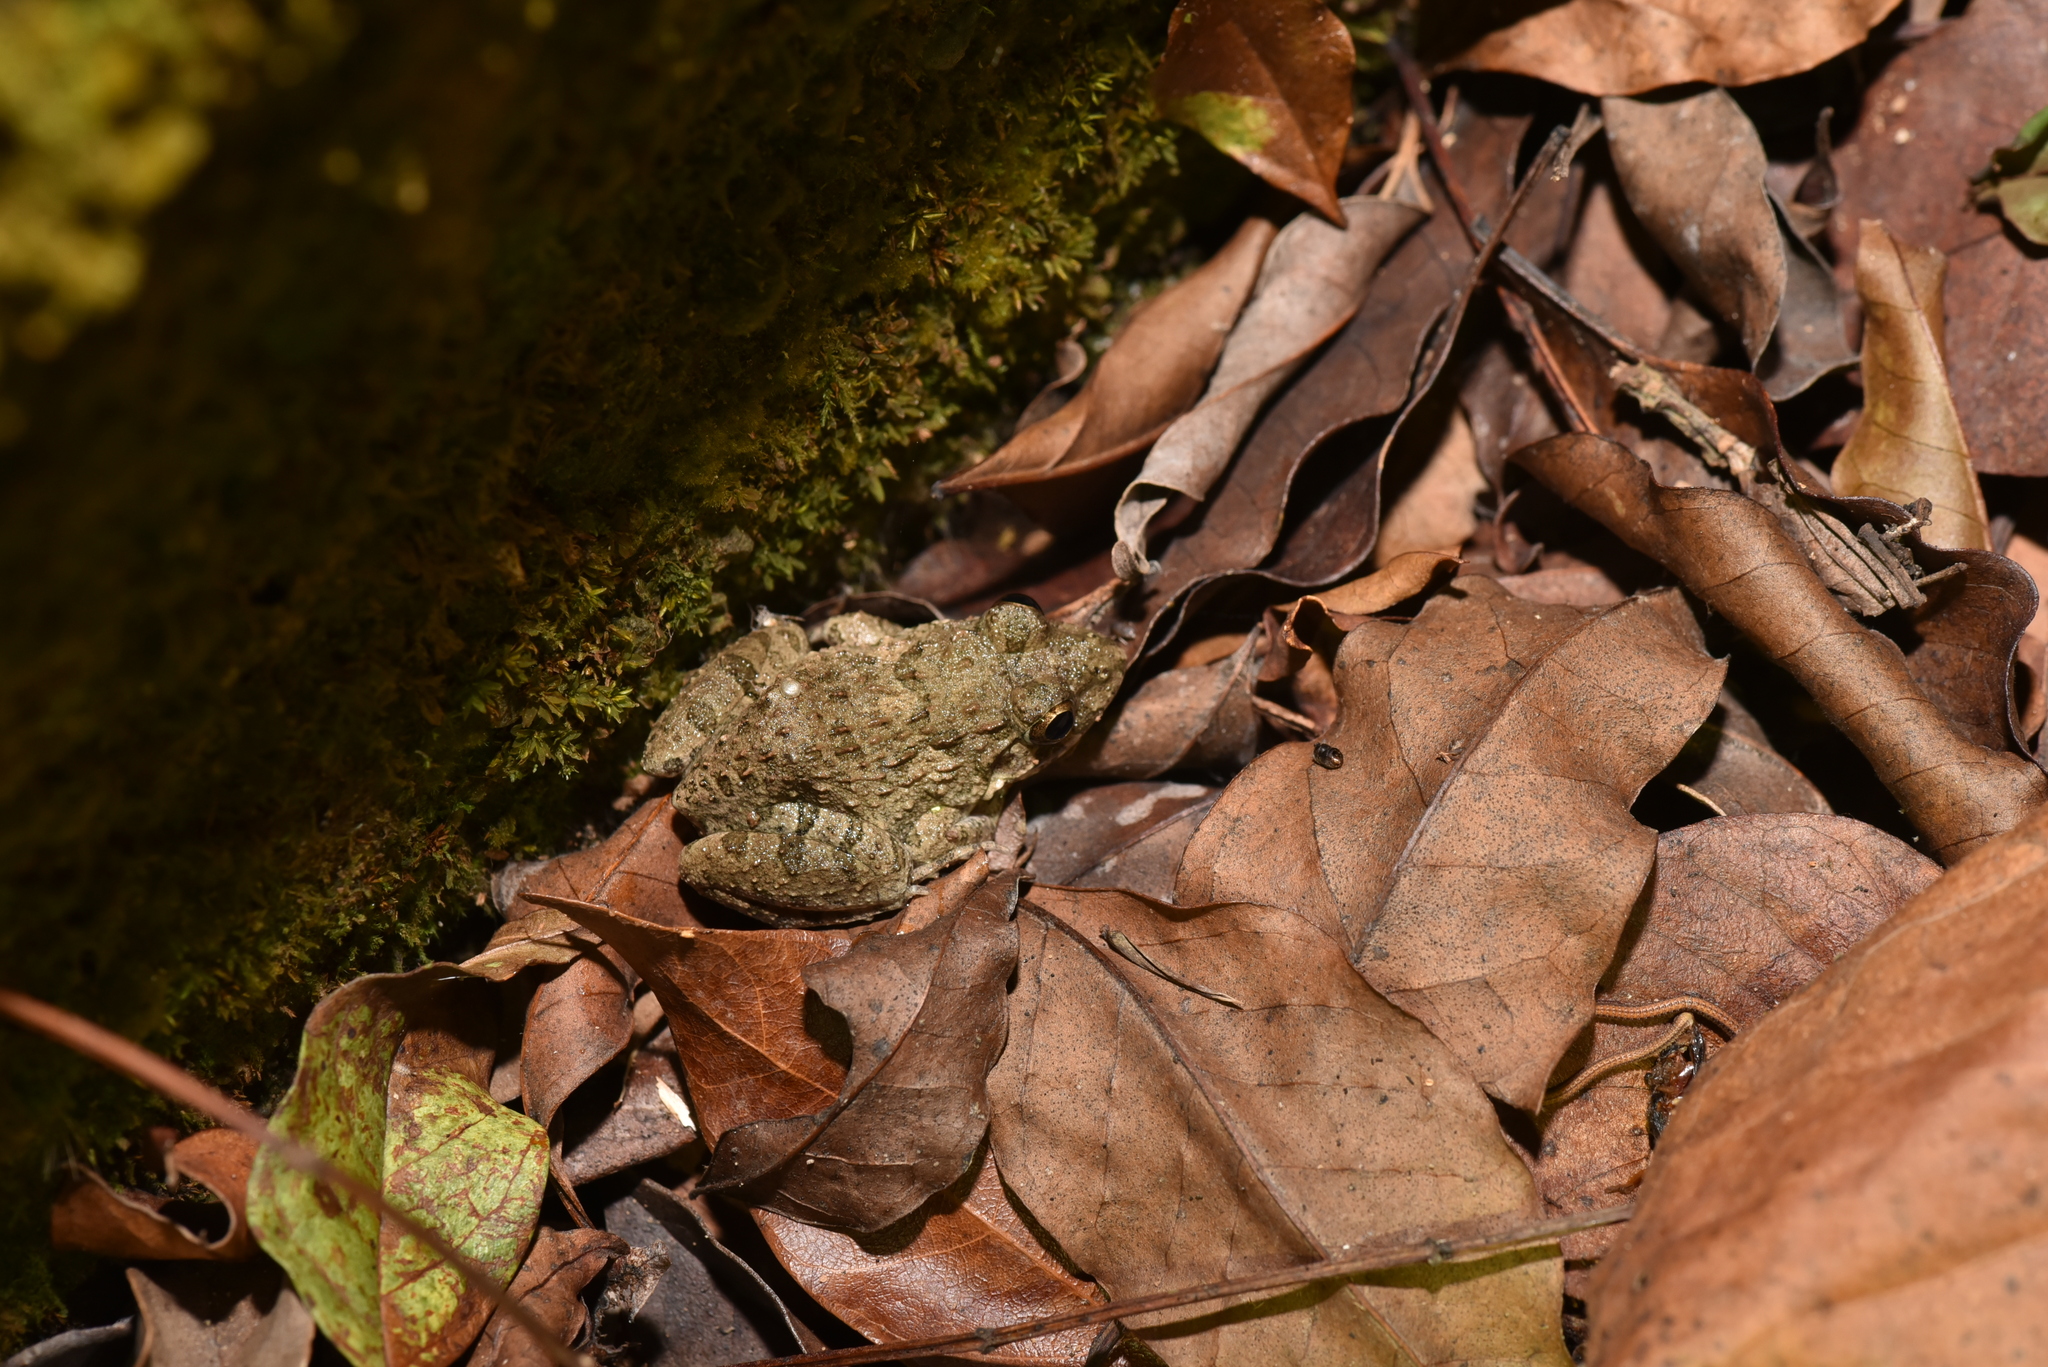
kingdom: Animalia
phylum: Chordata
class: Amphibia
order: Anura
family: Dicroglossidae
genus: Fejervarya
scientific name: Fejervarya limnocharis
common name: Asian grass frog/common pond frog/field frog/grass frog/indian rice frog
